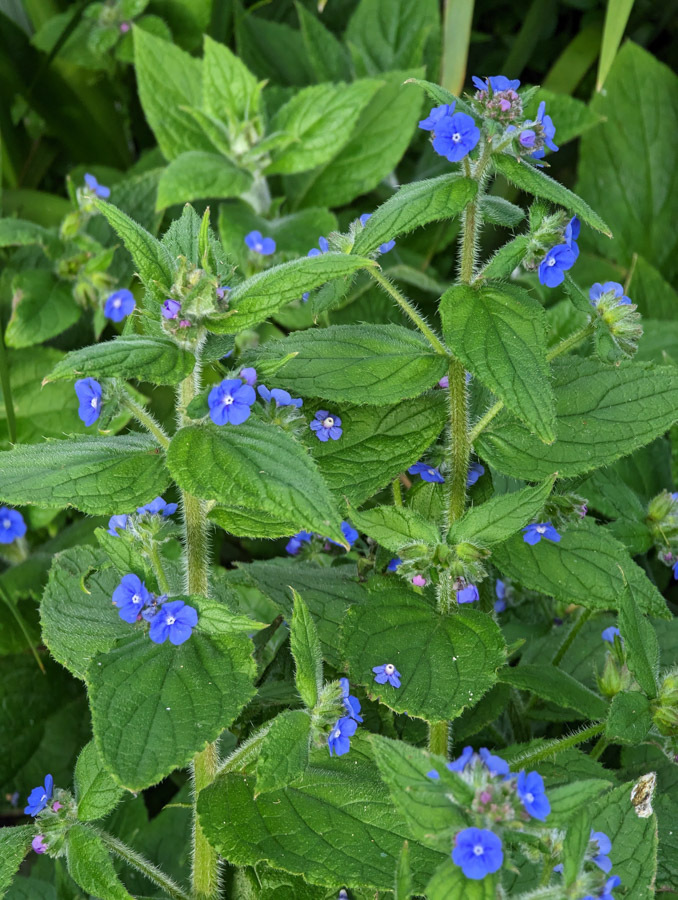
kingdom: Plantae
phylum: Tracheophyta
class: Magnoliopsida
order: Boraginales
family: Boraginaceae
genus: Pentaglottis
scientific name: Pentaglottis sempervirens
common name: Green alkanet
